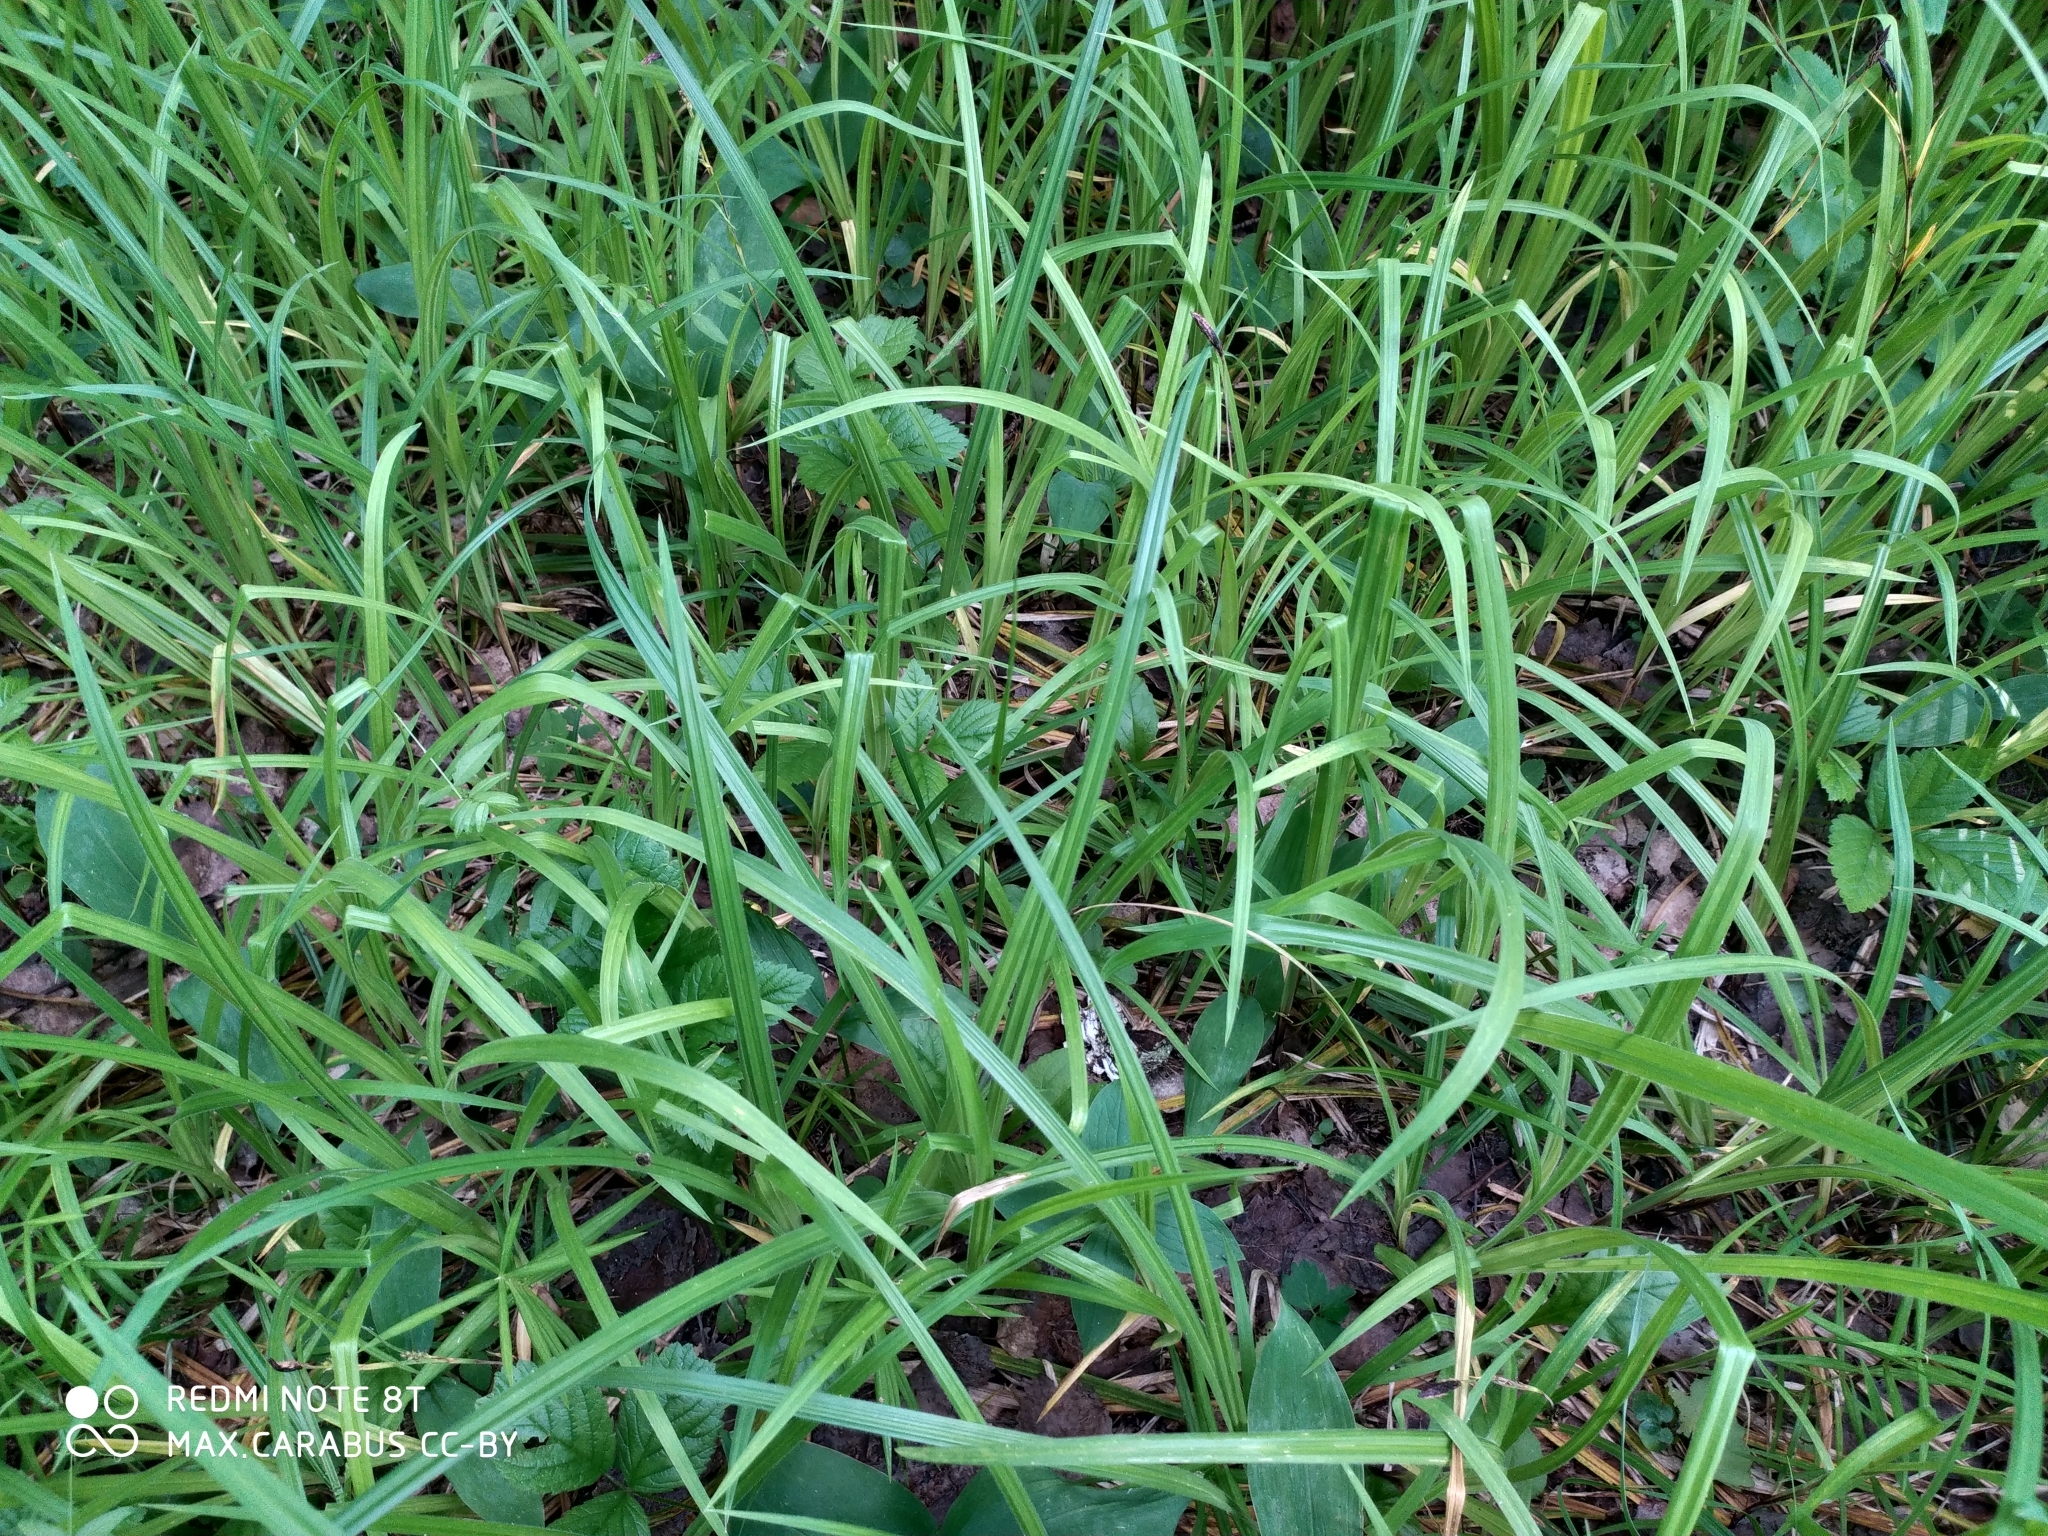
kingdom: Plantae
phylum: Tracheophyta
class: Liliopsida
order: Poales
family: Cyperaceae
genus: Carex
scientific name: Carex pilosa
